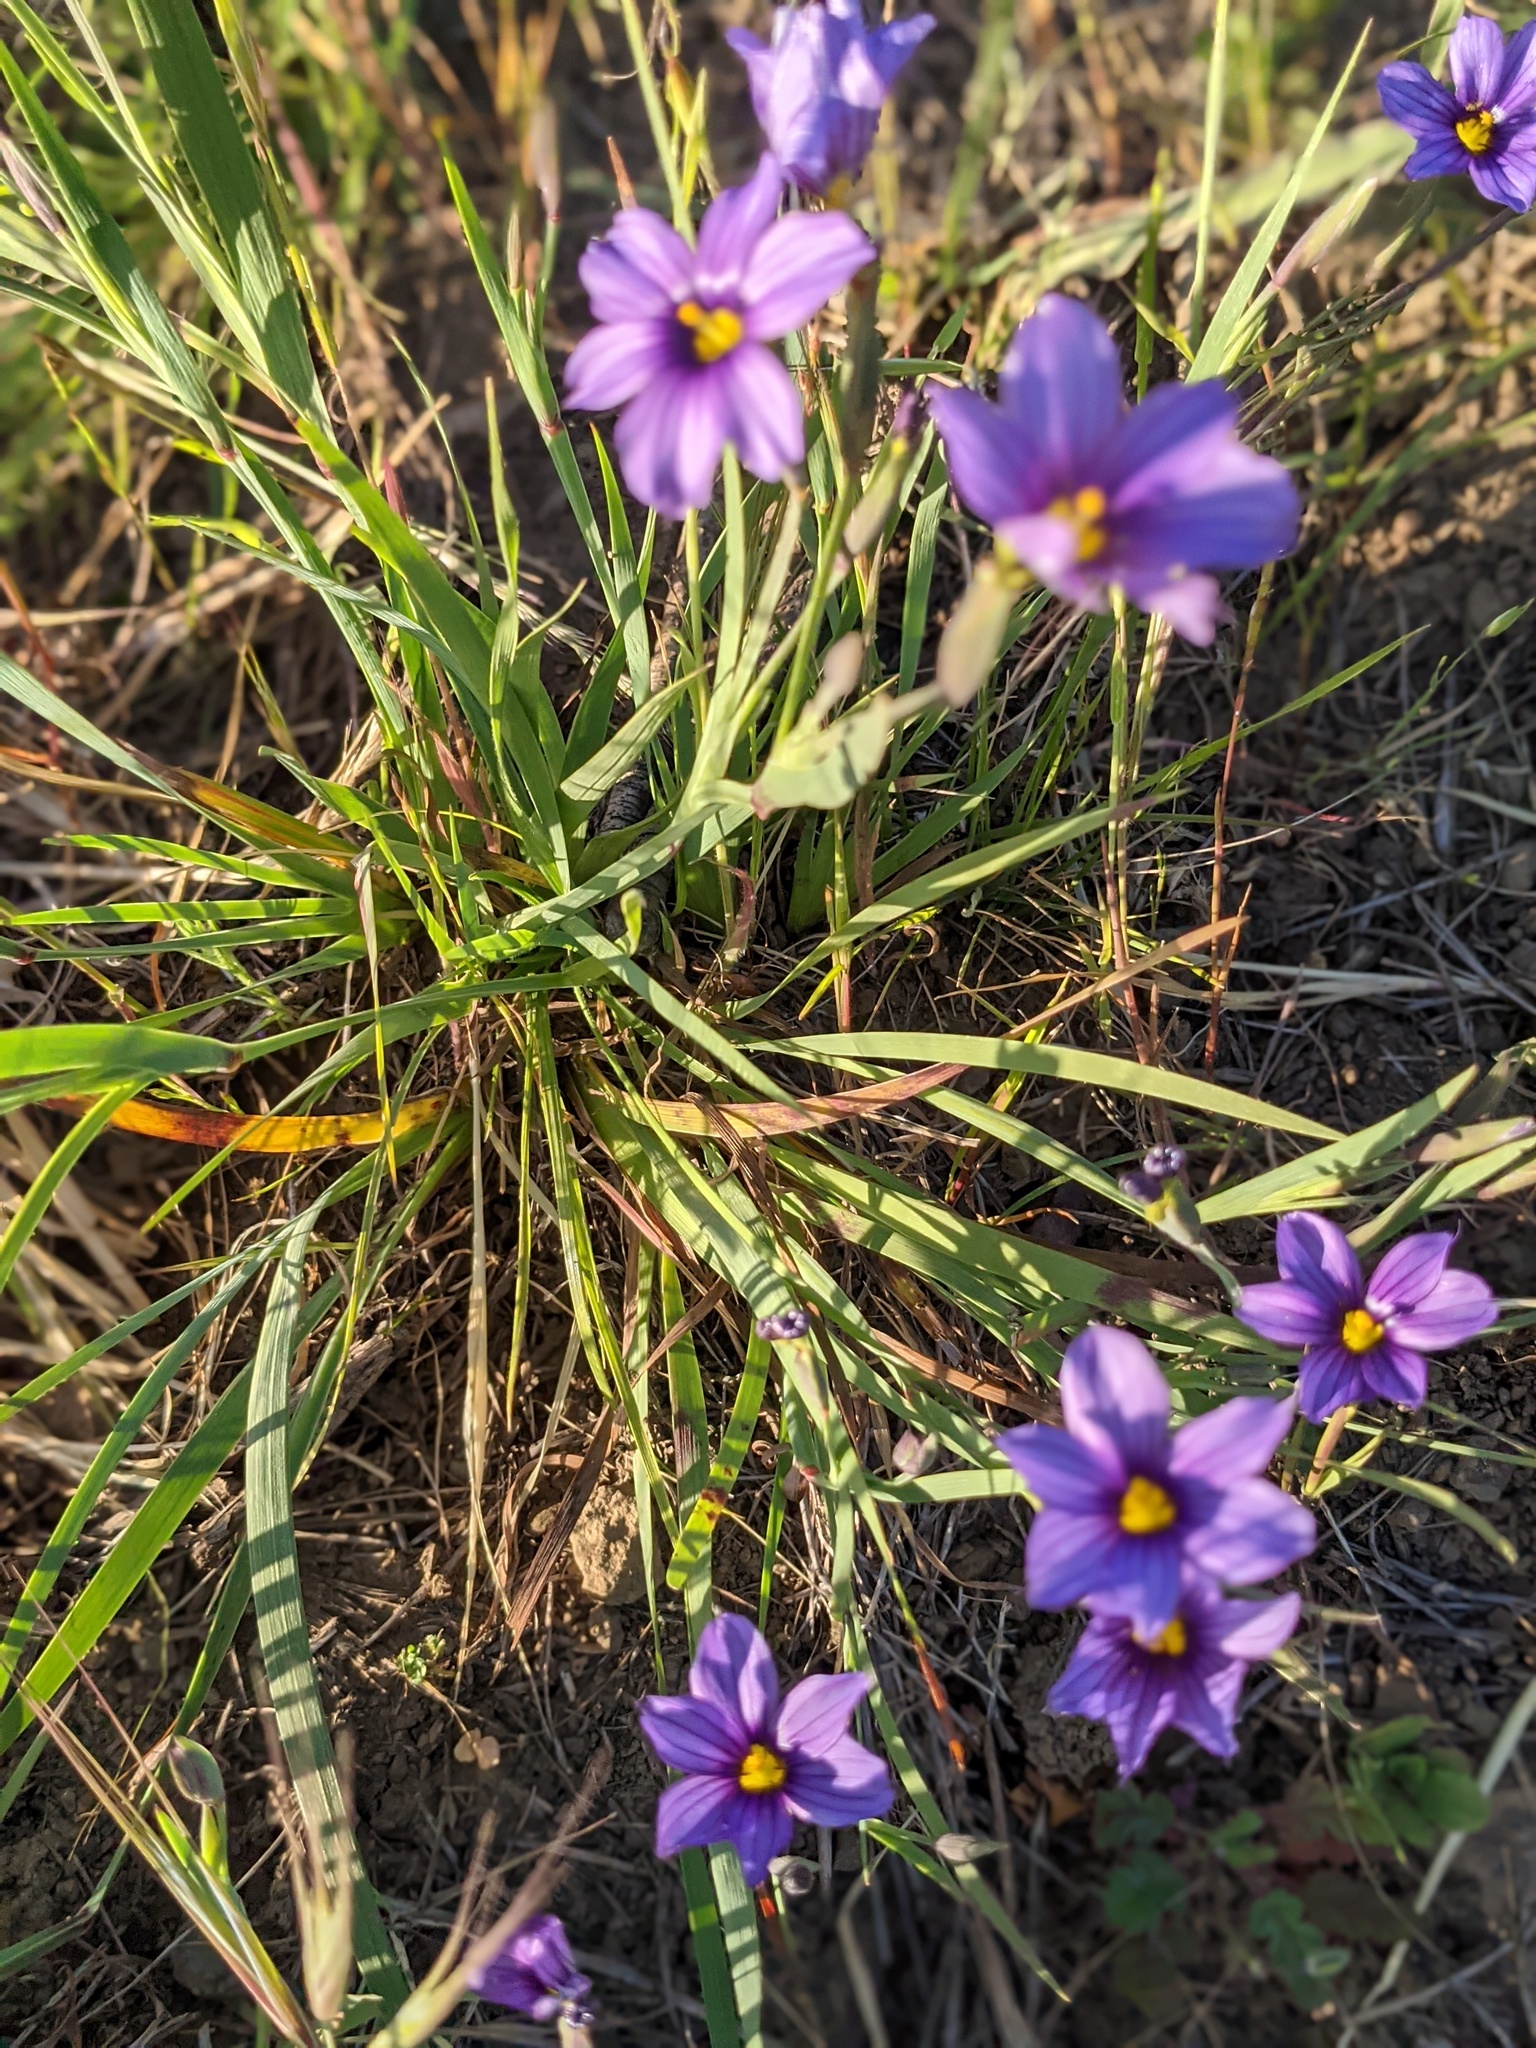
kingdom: Plantae
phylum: Tracheophyta
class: Liliopsida
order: Asparagales
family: Iridaceae
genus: Sisyrinchium
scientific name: Sisyrinchium bellum
